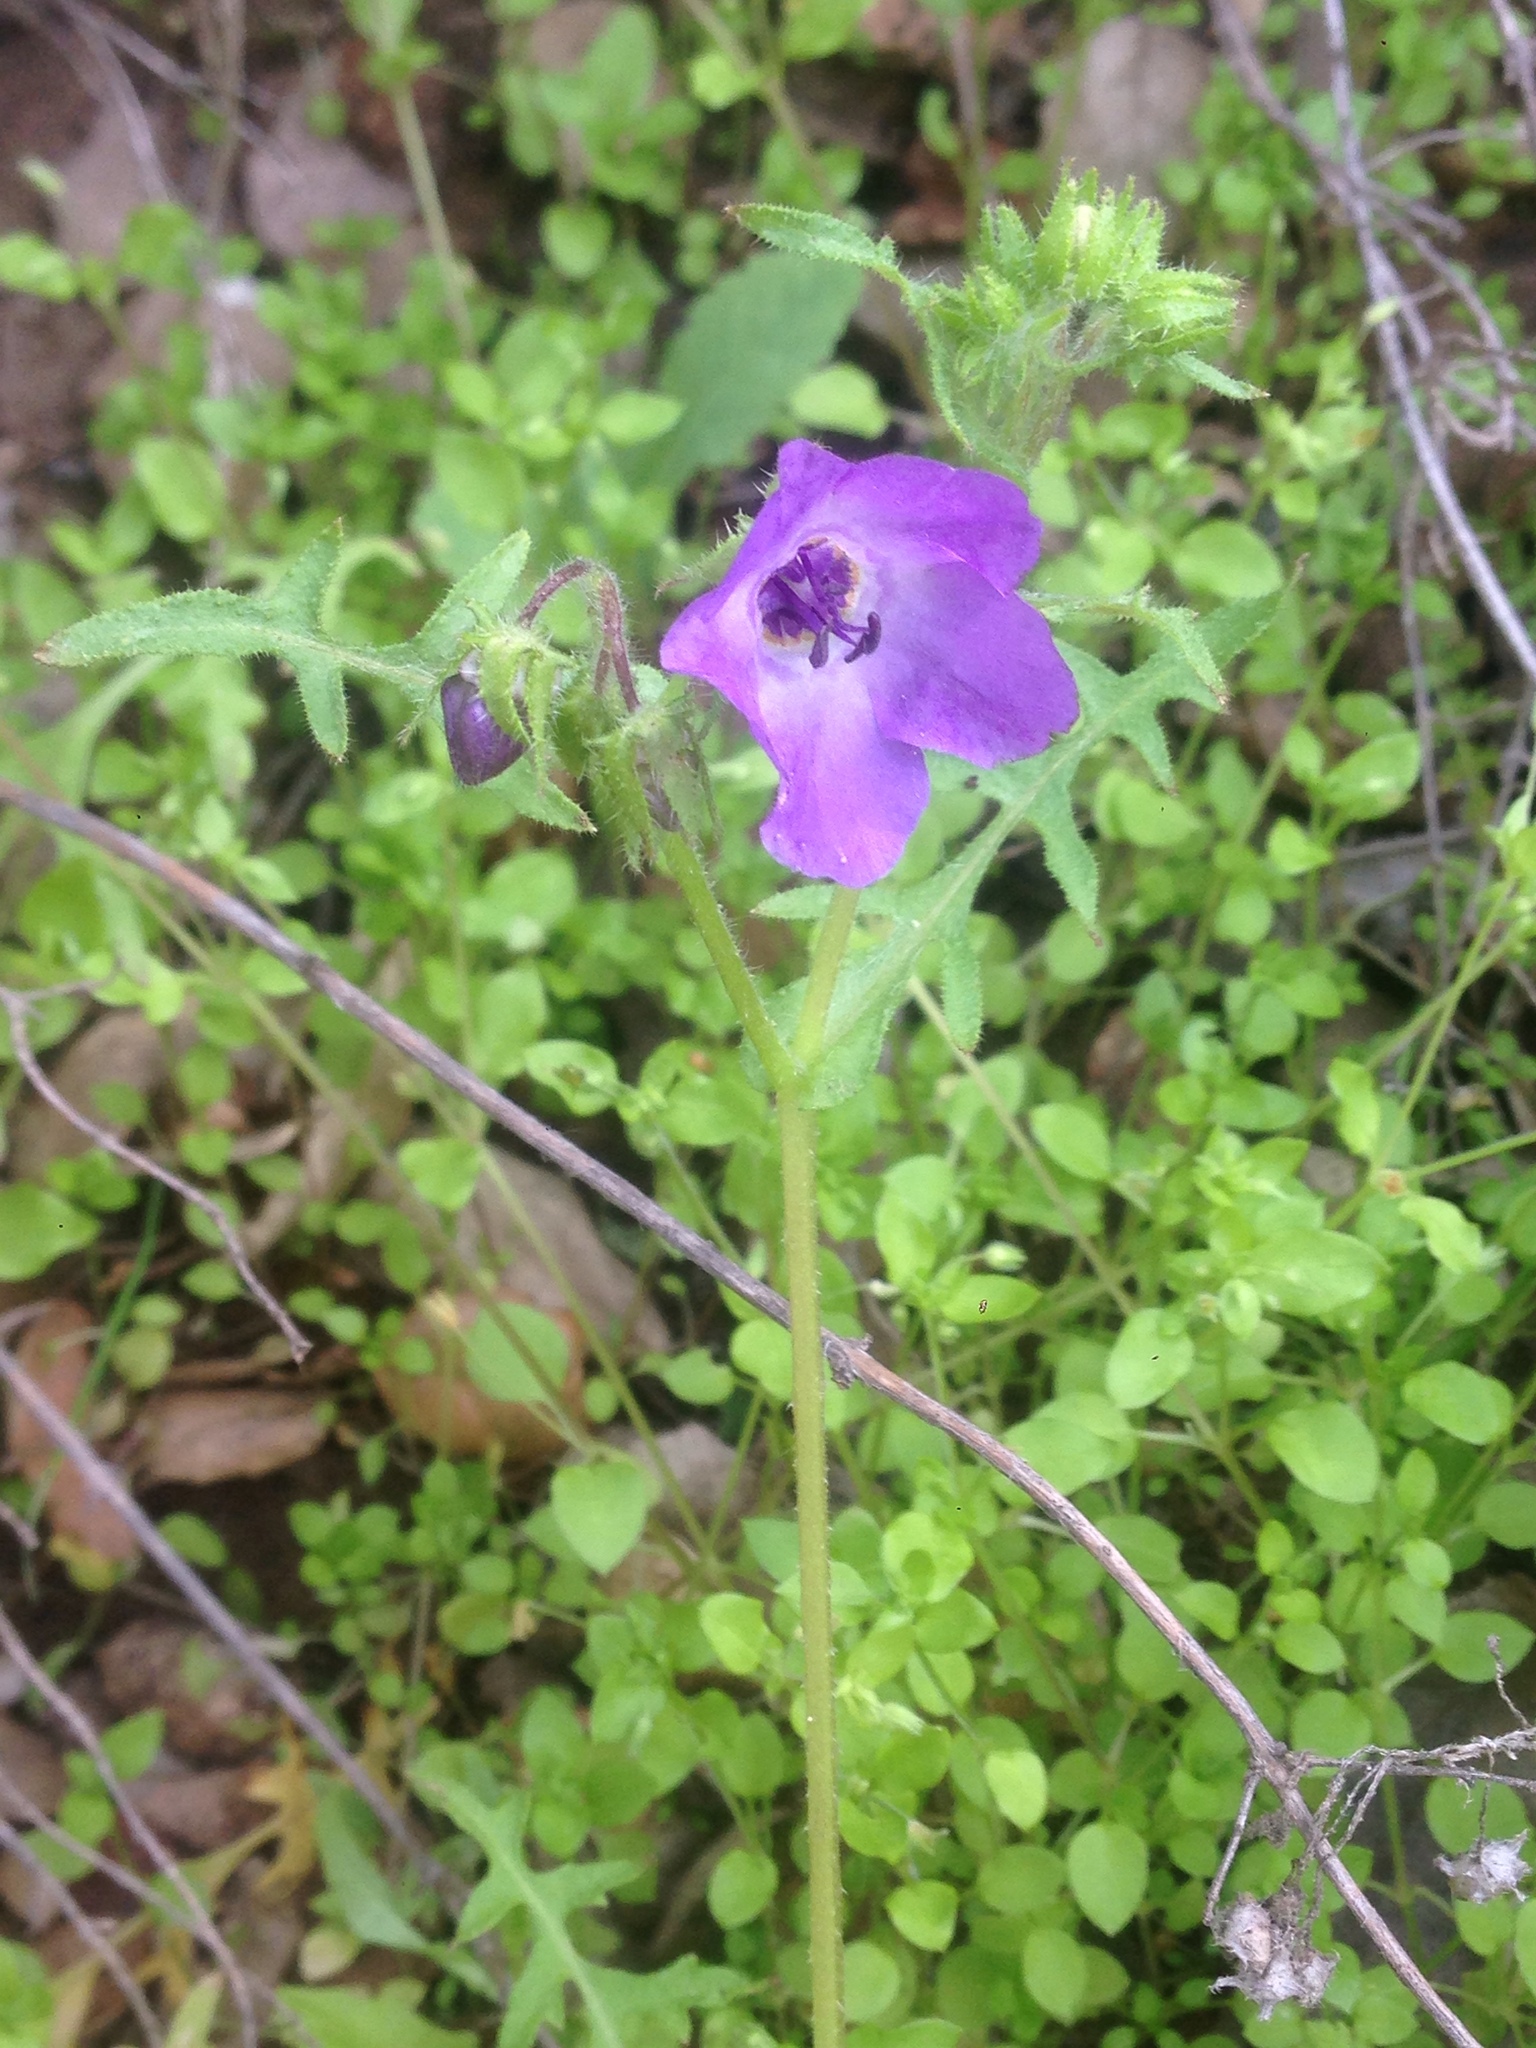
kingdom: Plantae
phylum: Tracheophyta
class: Magnoliopsida
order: Boraginales
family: Hydrophyllaceae
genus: Pholistoma
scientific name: Pholistoma auritum
